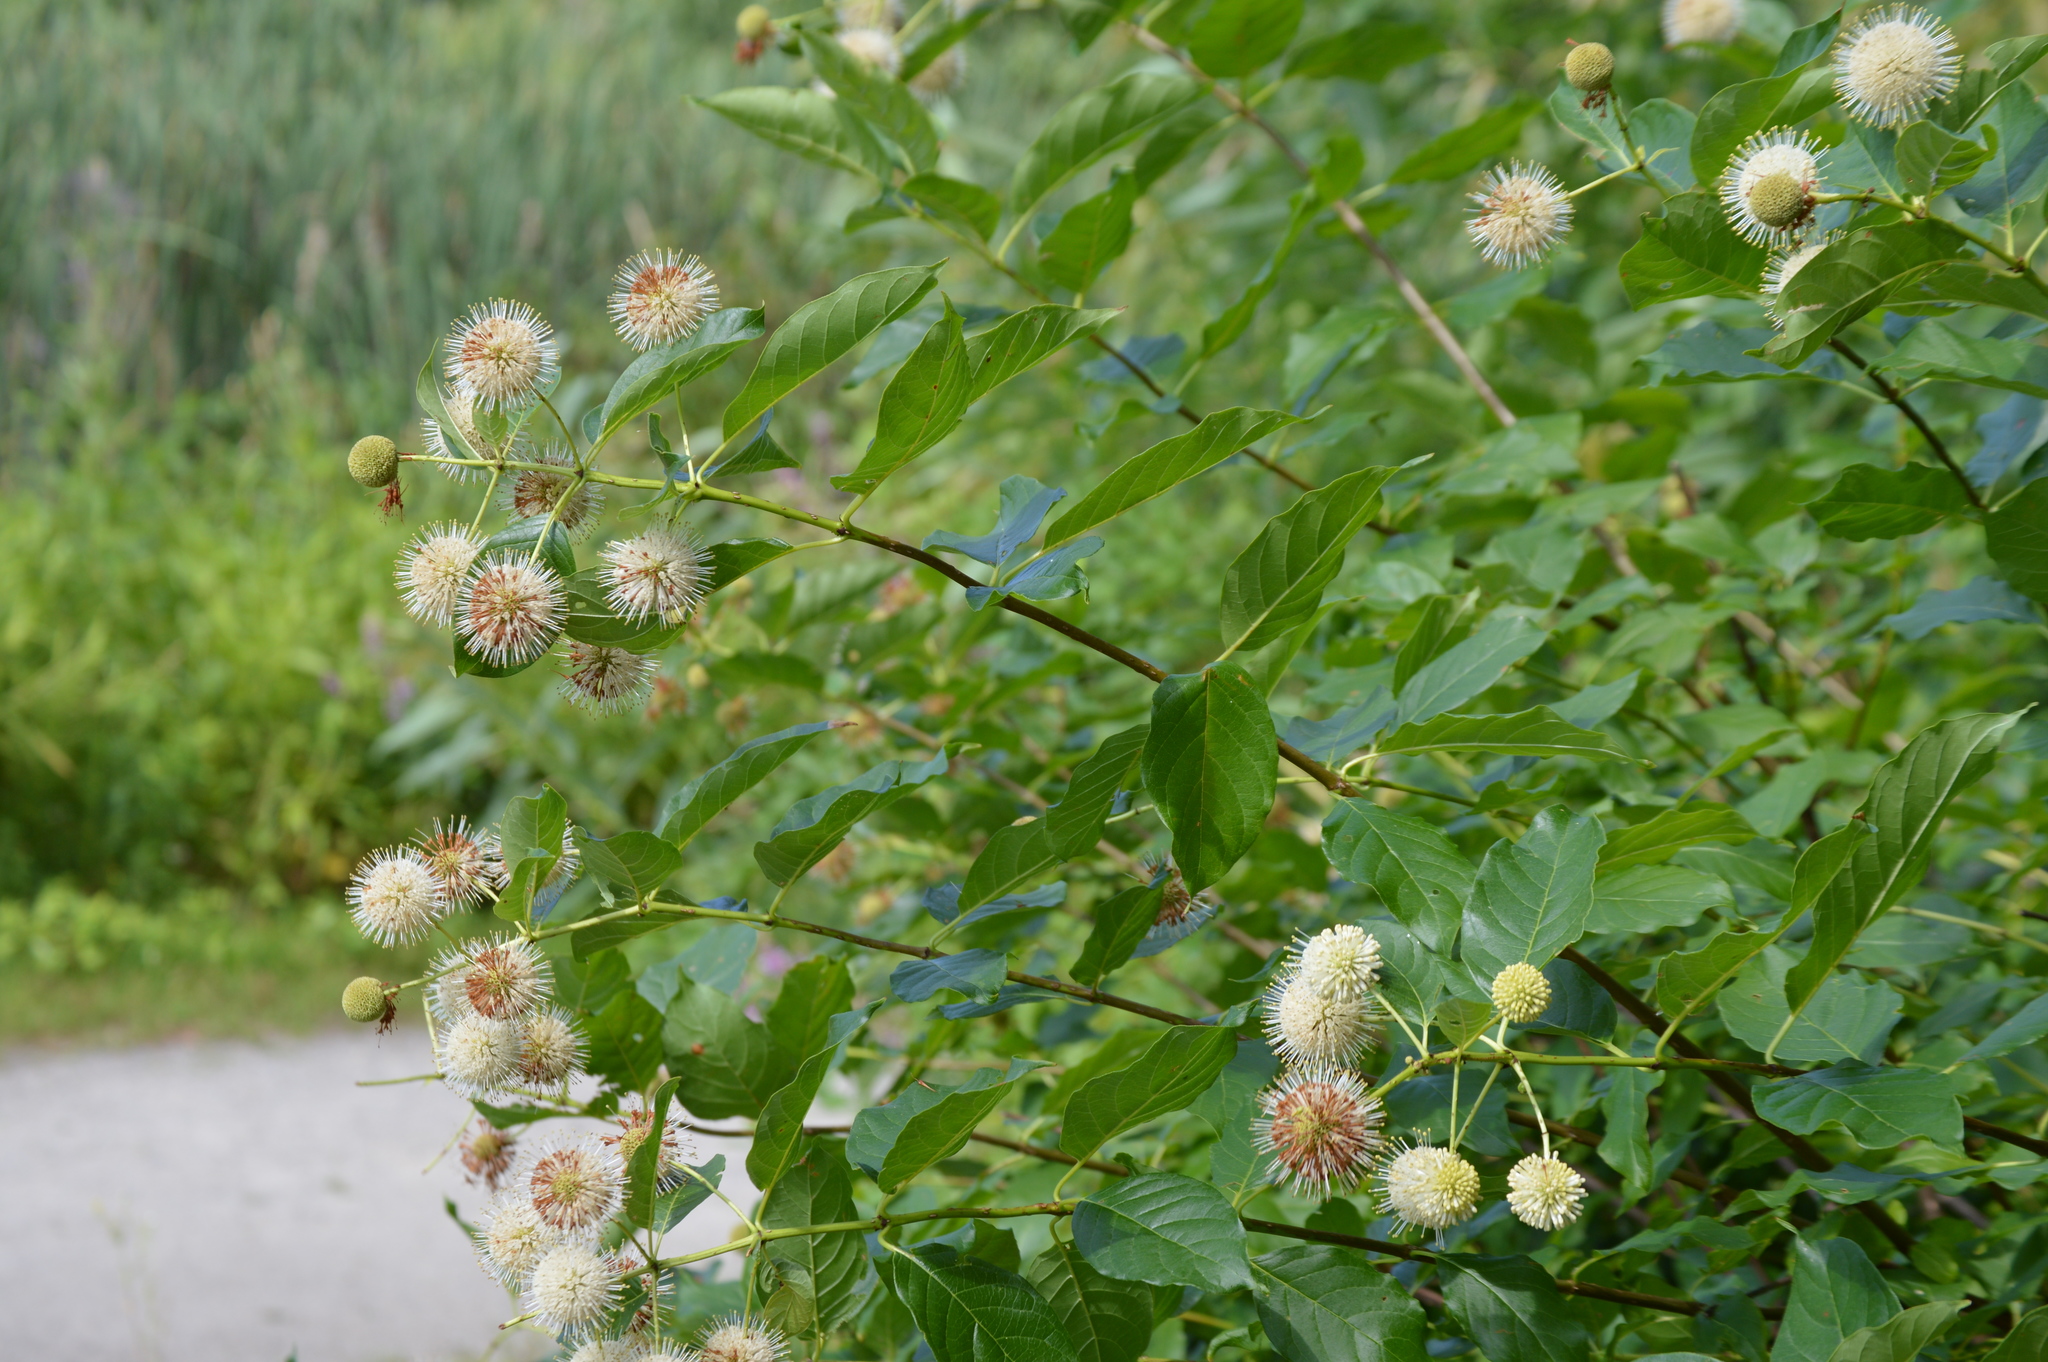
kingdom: Plantae
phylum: Tracheophyta
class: Magnoliopsida
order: Gentianales
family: Rubiaceae
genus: Cephalanthus
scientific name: Cephalanthus occidentalis
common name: Button-willow
